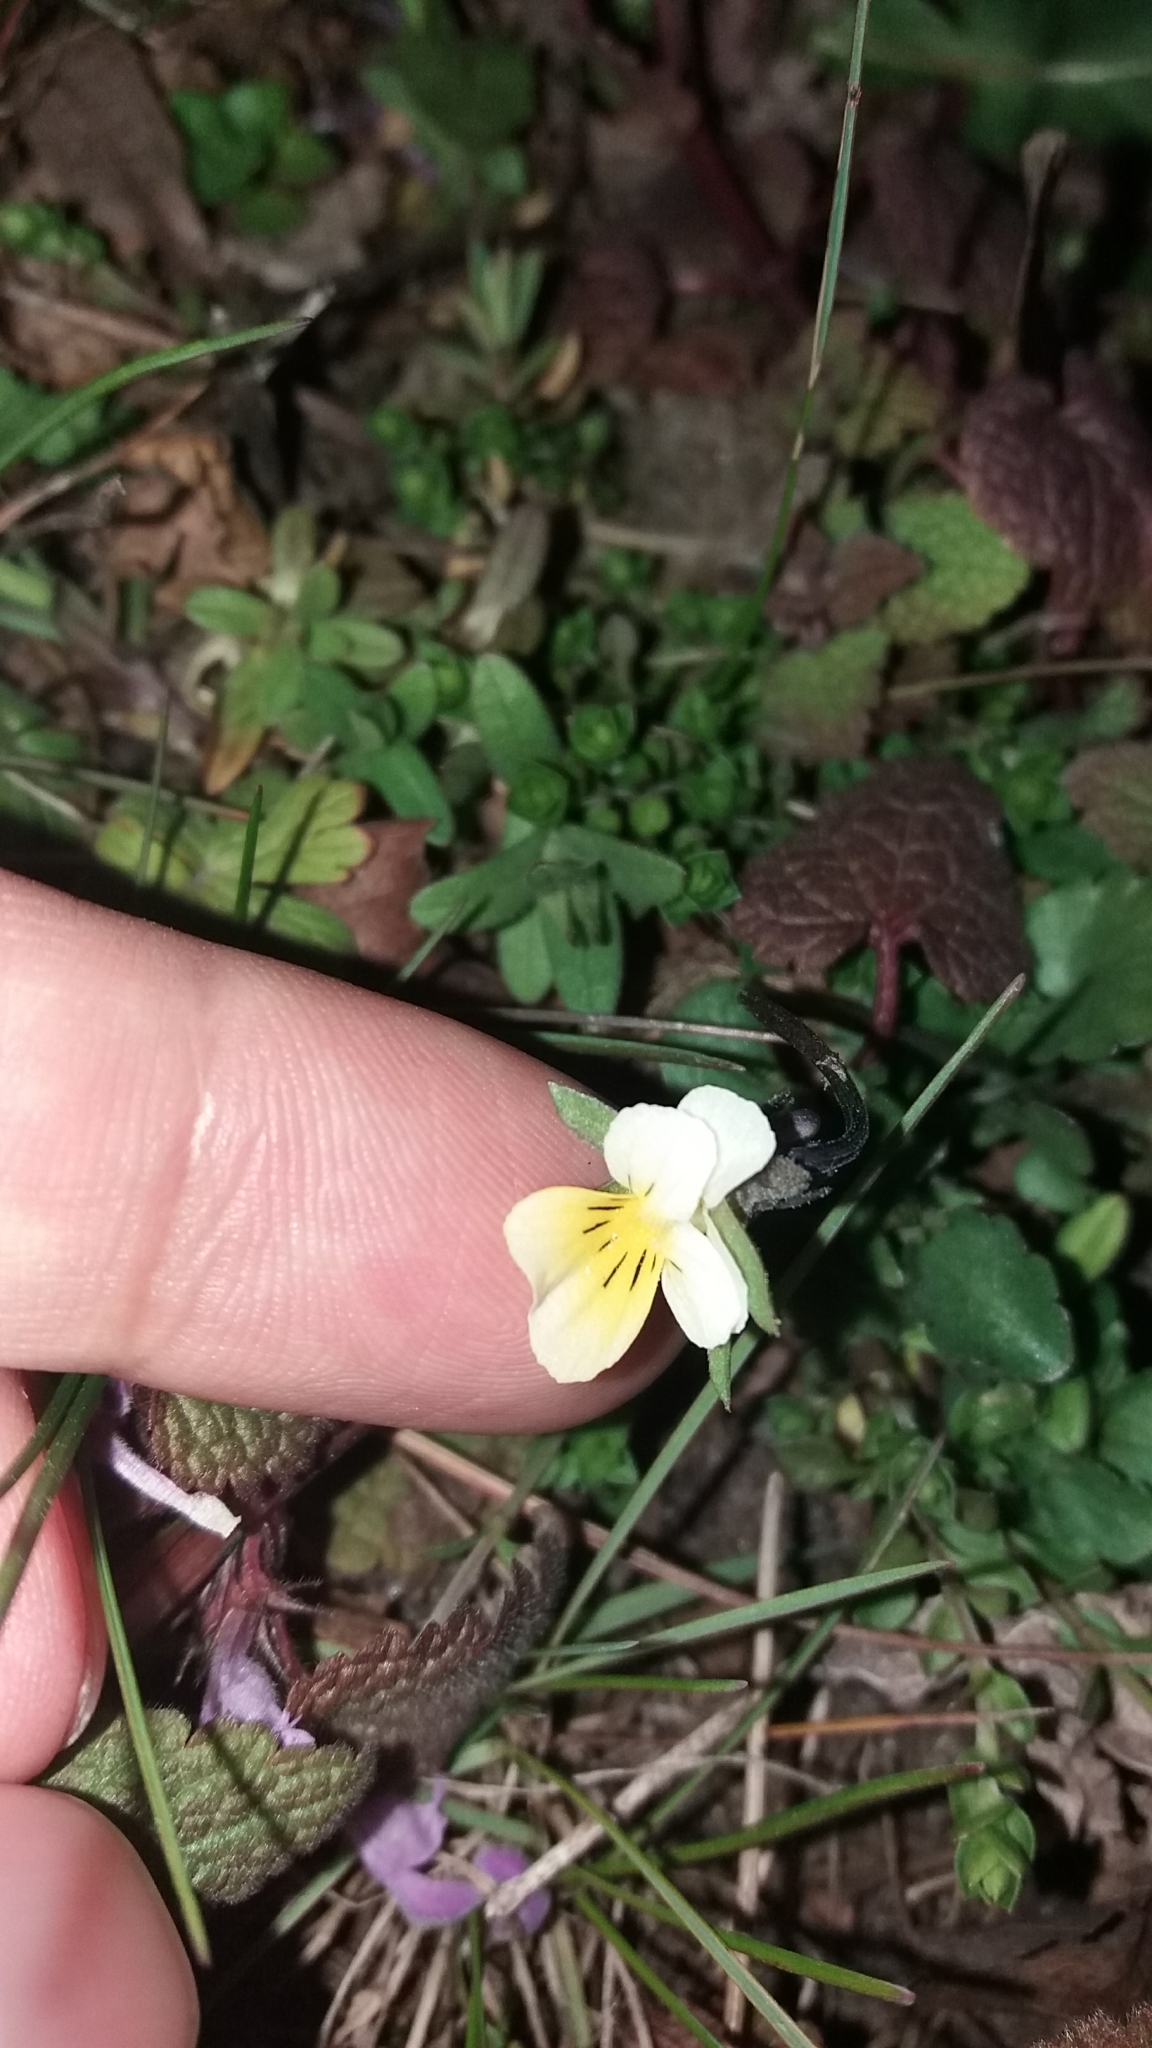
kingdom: Plantae
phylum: Tracheophyta
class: Magnoliopsida
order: Malpighiales
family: Violaceae
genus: Viola
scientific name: Viola arvensis
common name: Field pansy
